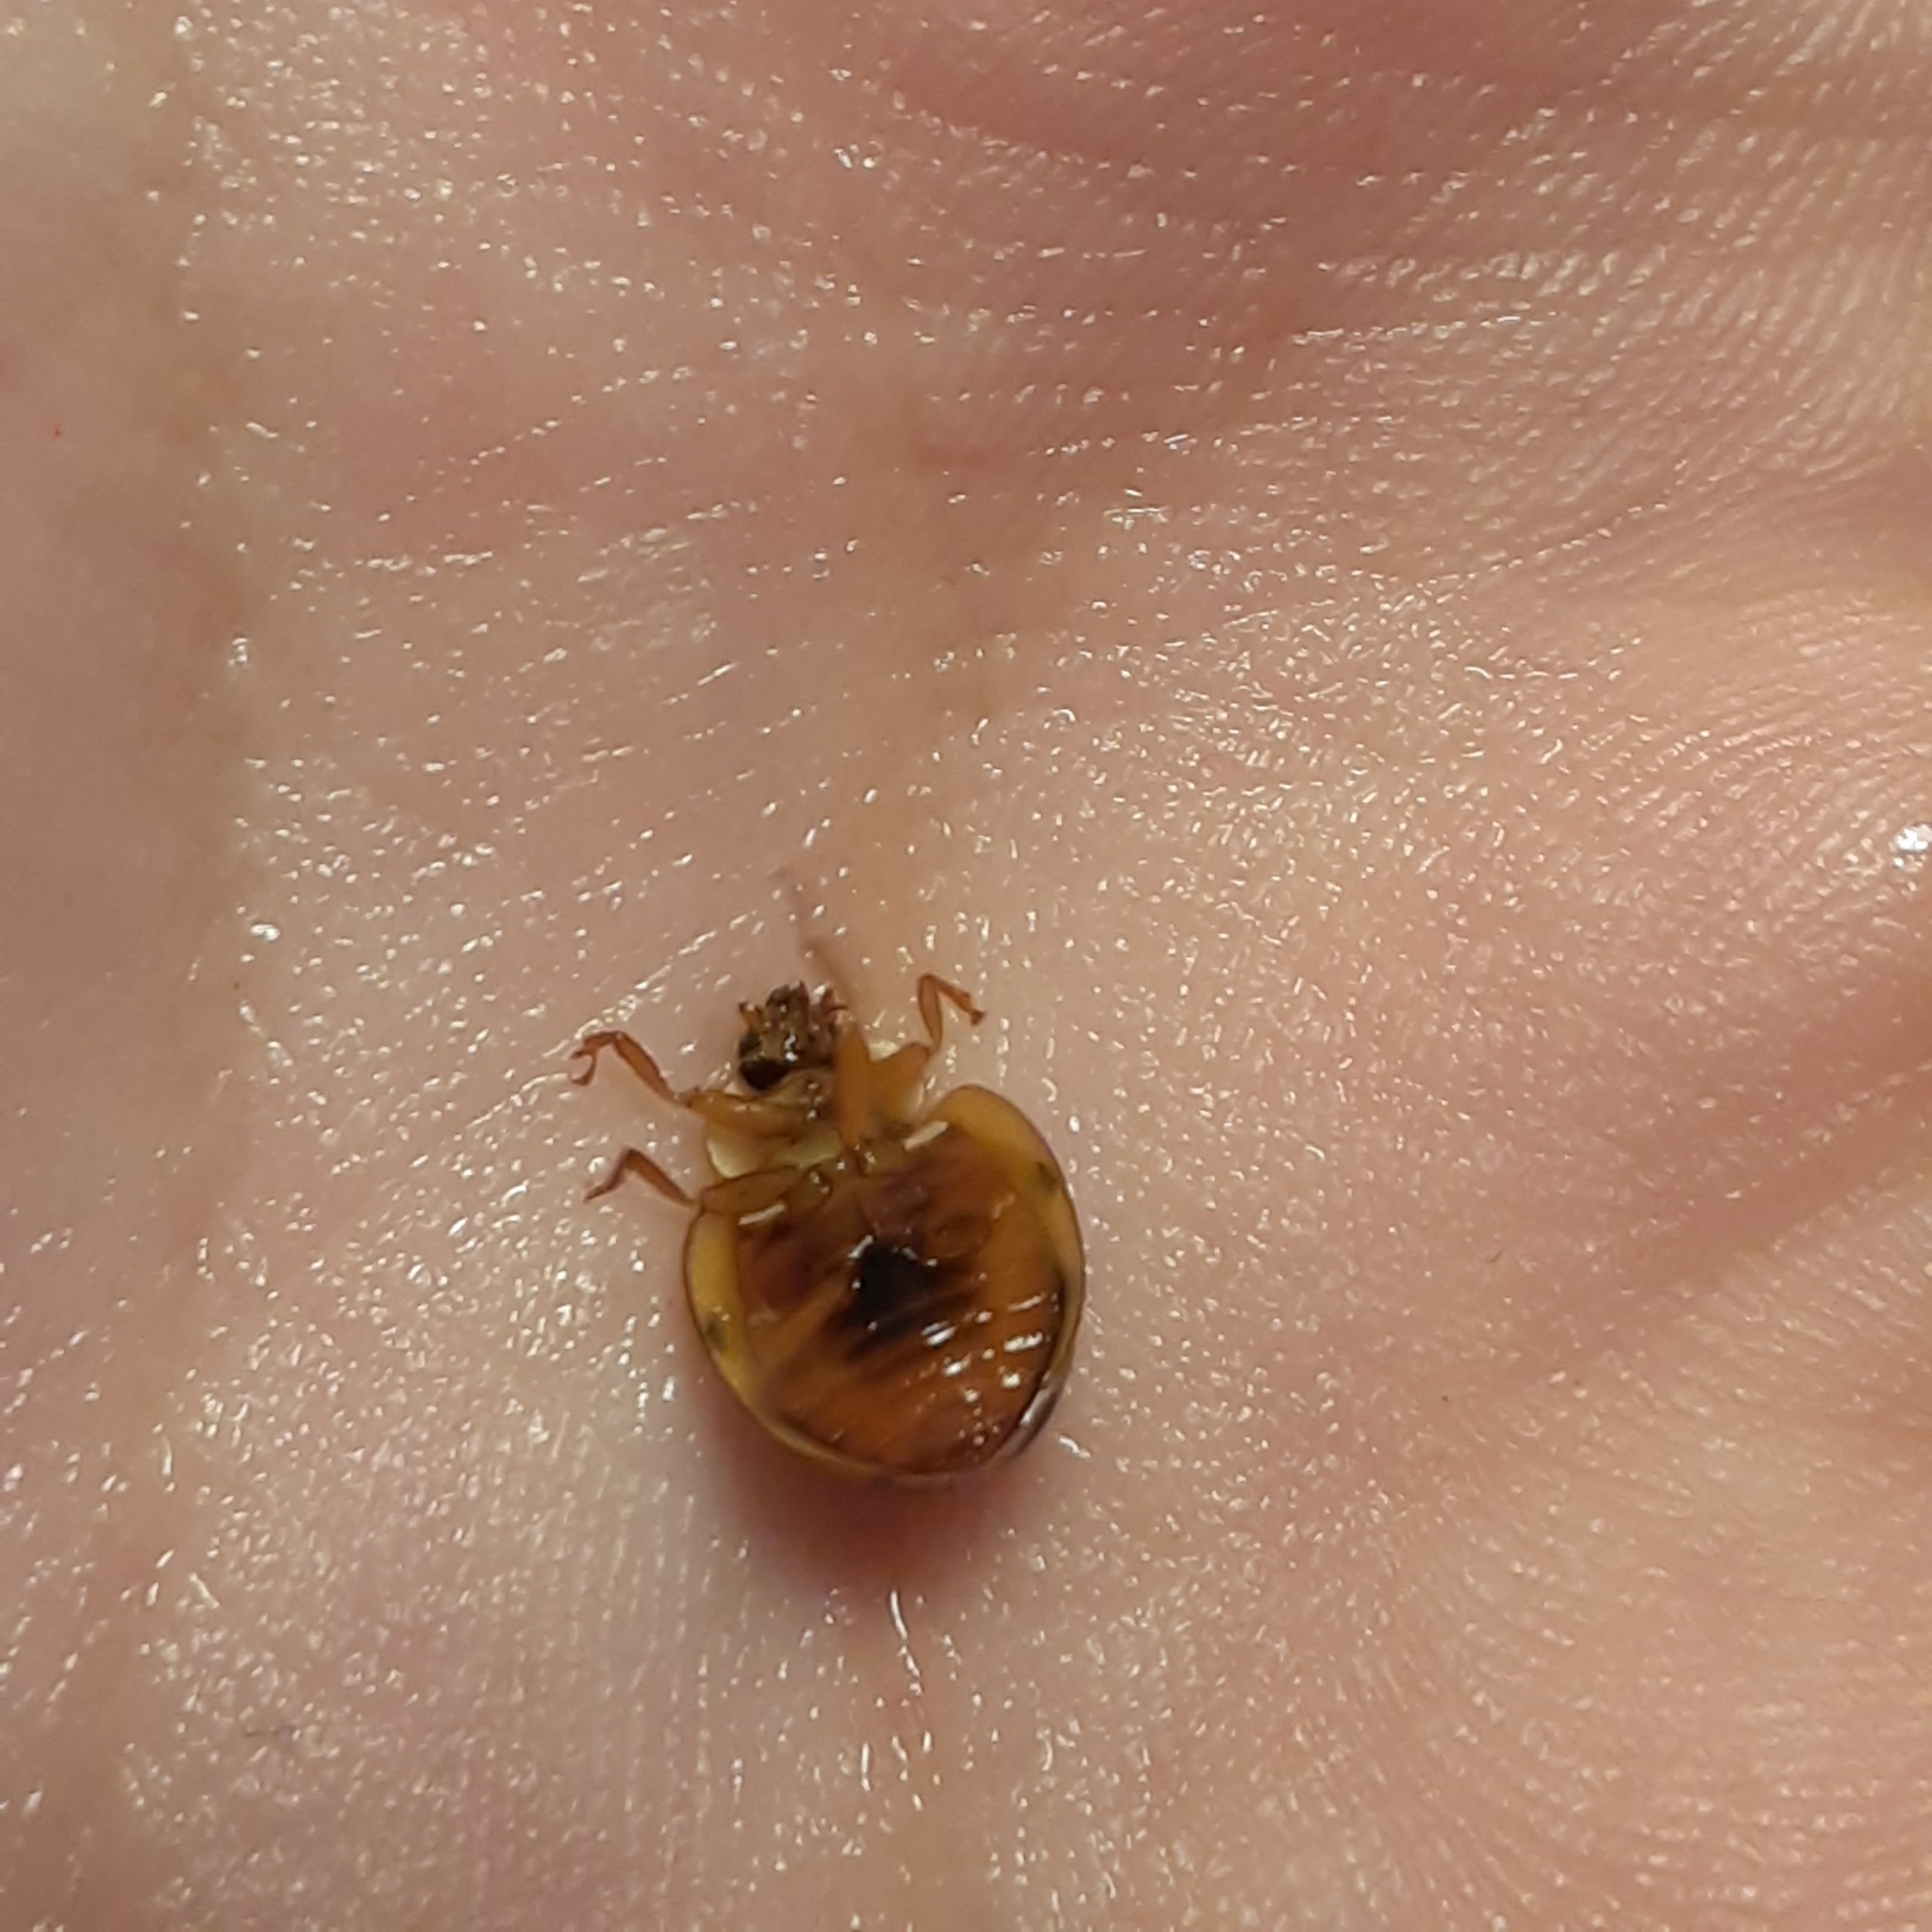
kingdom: Animalia
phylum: Arthropoda
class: Insecta
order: Coleoptera
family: Coccinellidae
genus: Harmonia
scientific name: Harmonia axyridis
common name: Harlequin ladybird
